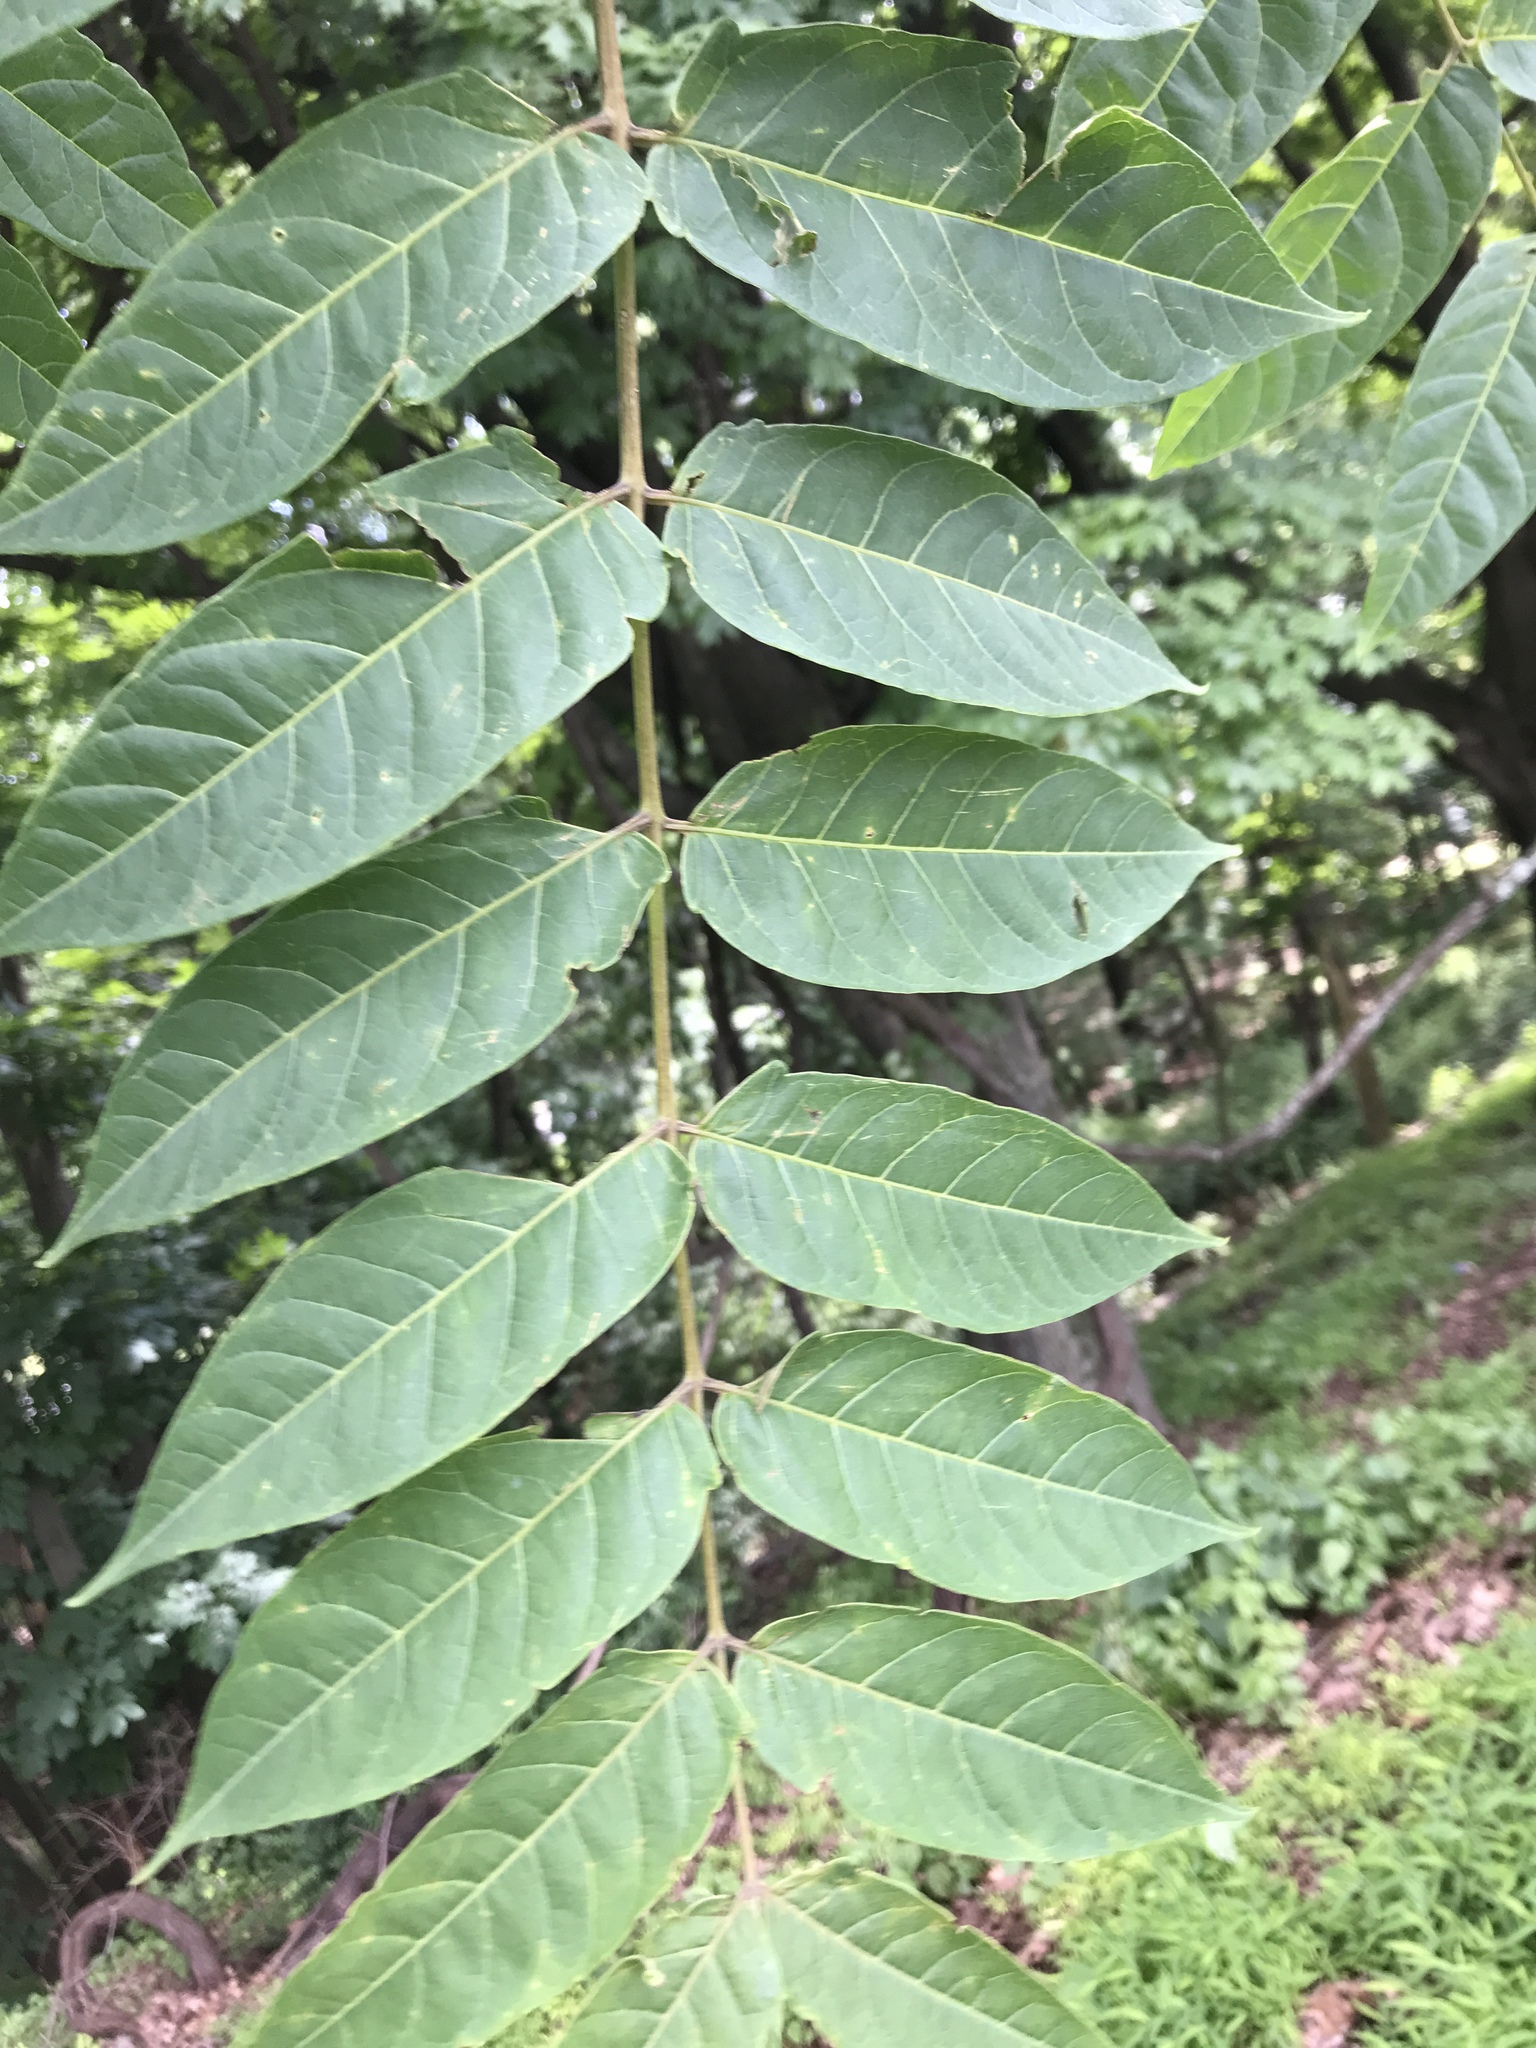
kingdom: Plantae
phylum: Tracheophyta
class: Magnoliopsida
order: Sapindales
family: Simaroubaceae
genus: Ailanthus
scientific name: Ailanthus altissima
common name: Tree-of-heaven
